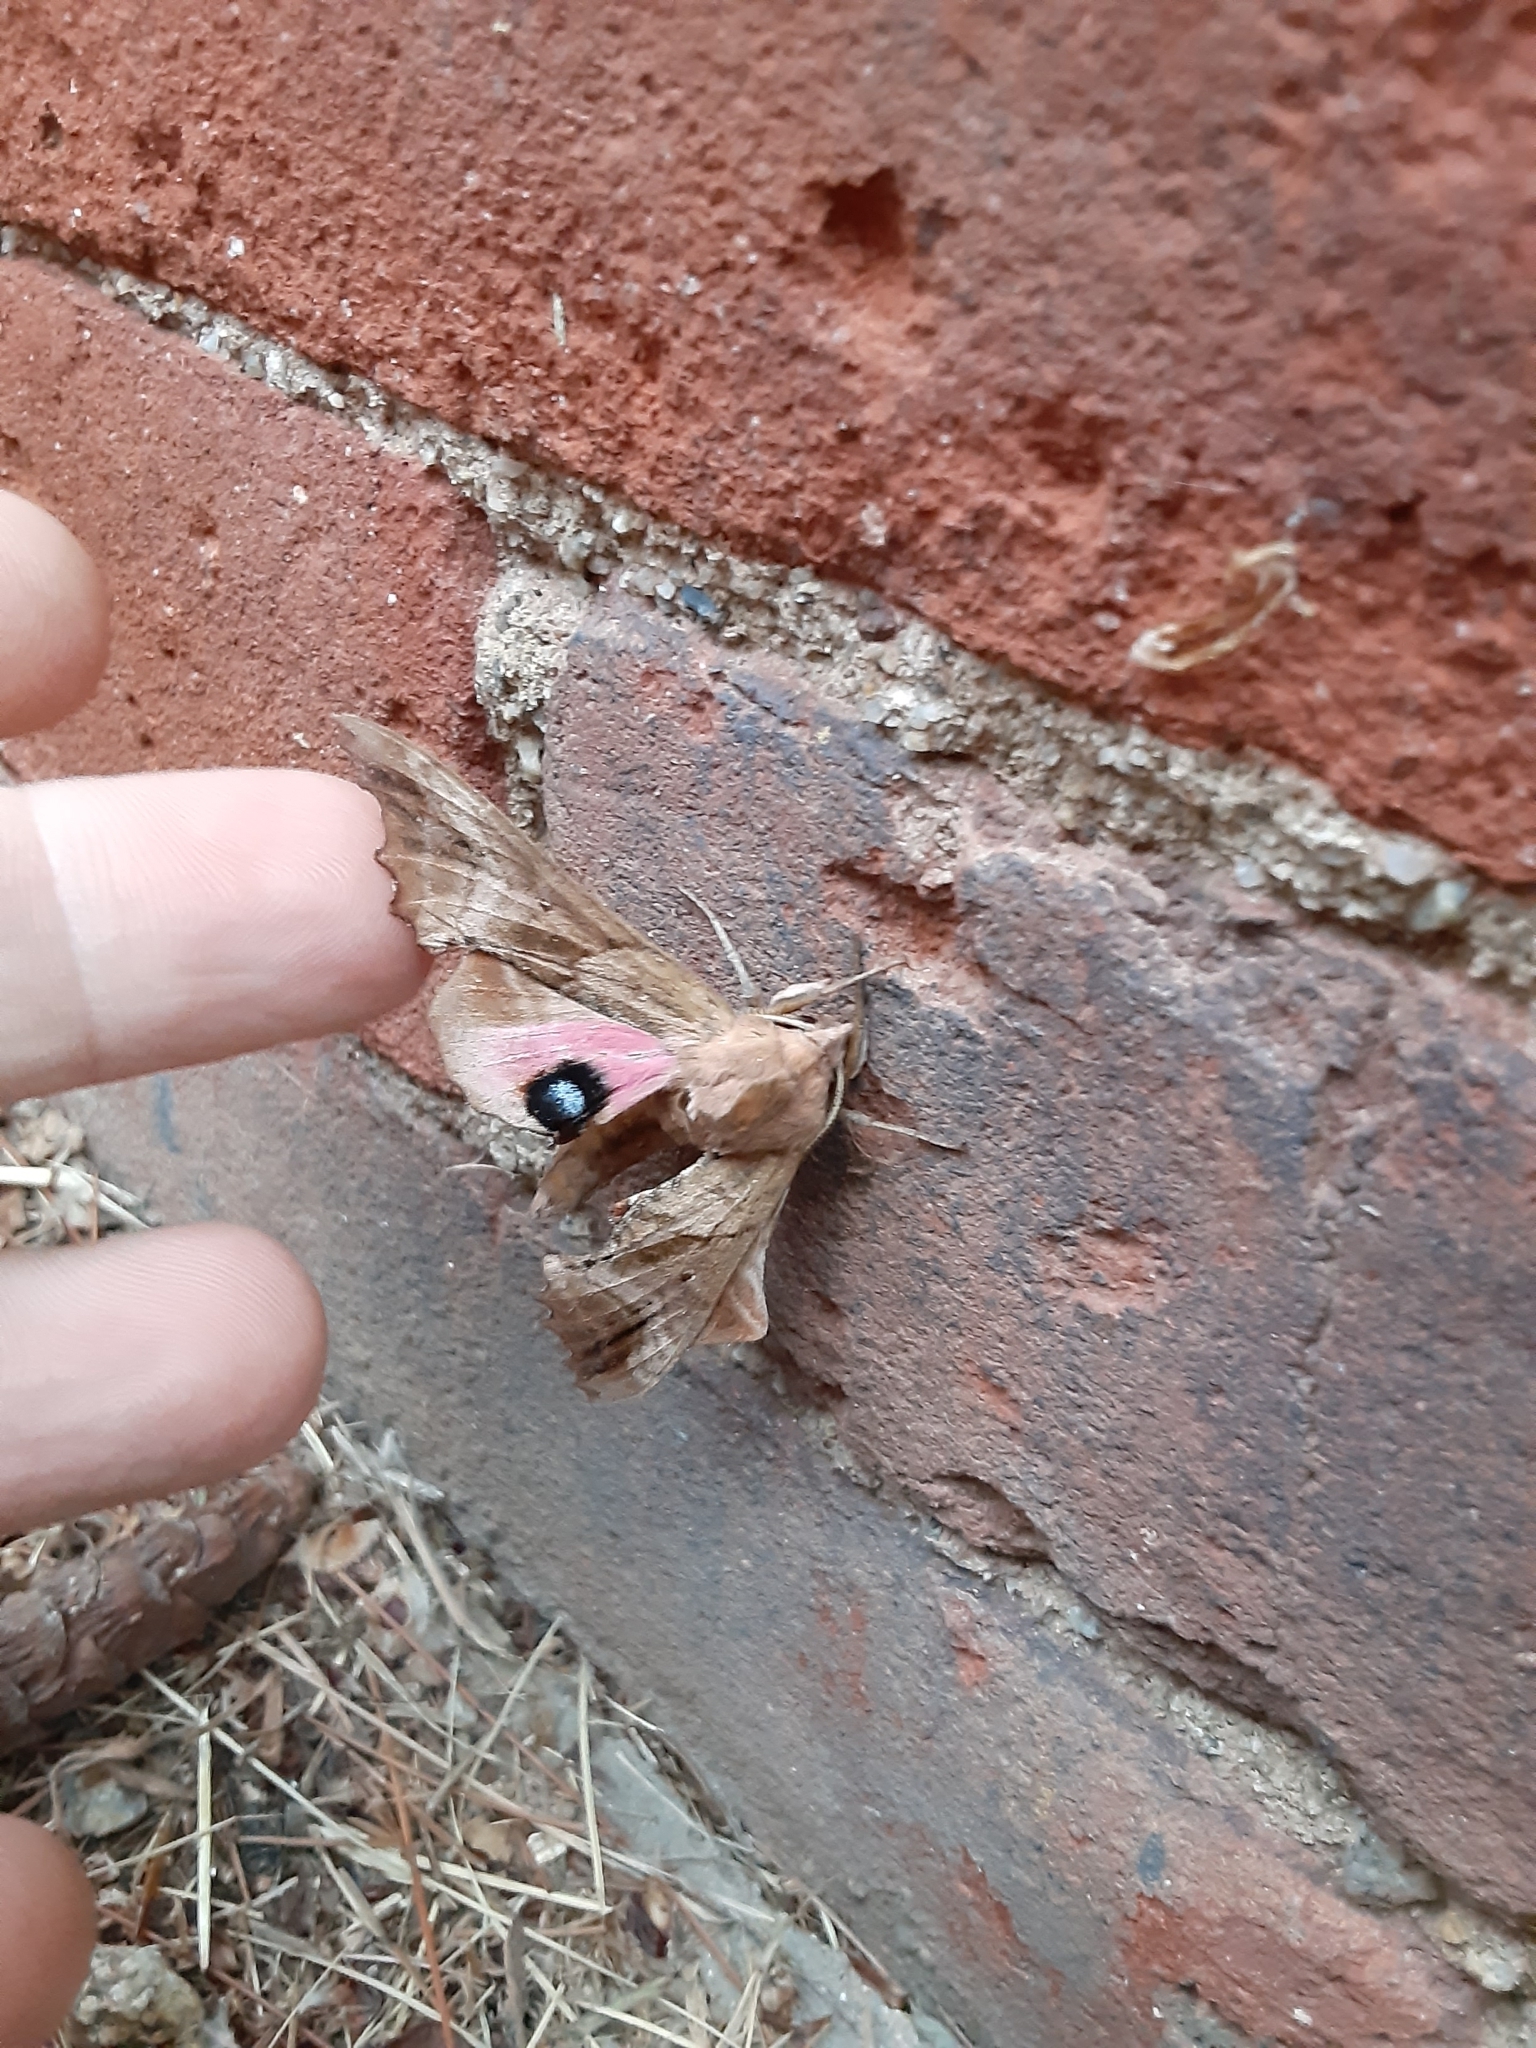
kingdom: Animalia
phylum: Arthropoda
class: Insecta
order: Lepidoptera
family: Sphingidae
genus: Paonias
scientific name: Paonias excaecata
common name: Blind-eyed sphinx
